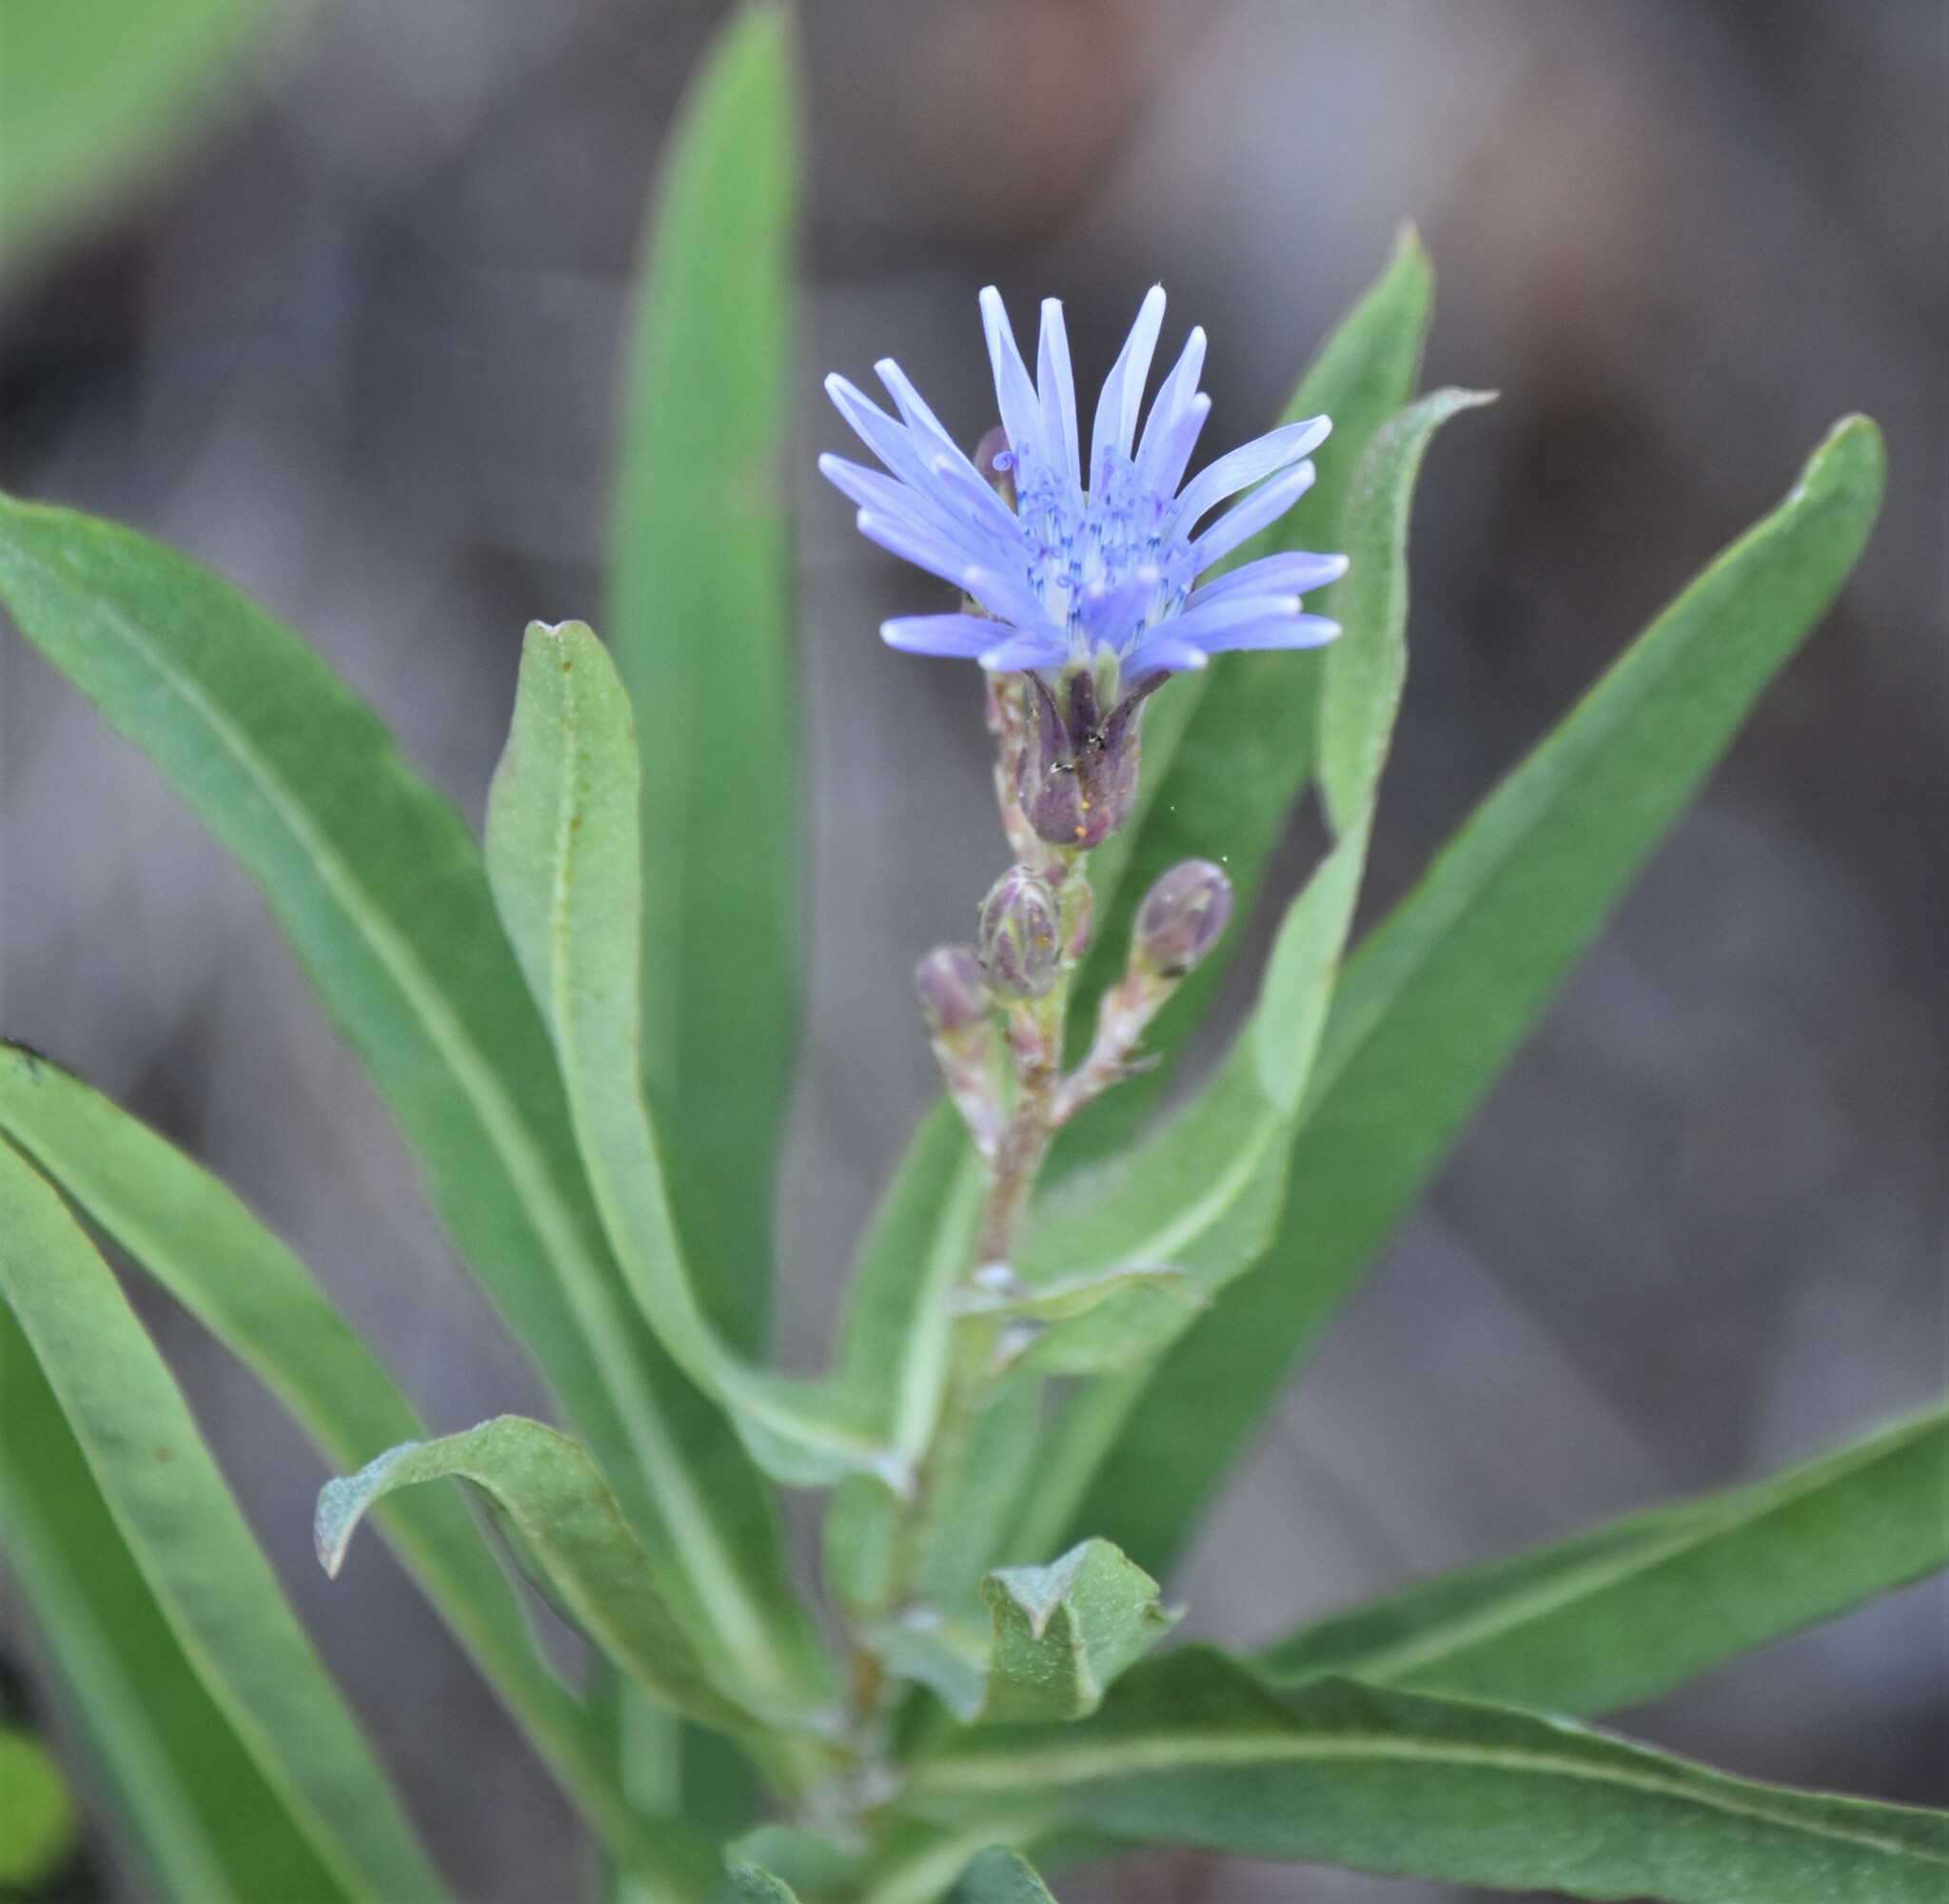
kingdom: Plantae
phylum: Tracheophyta
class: Magnoliopsida
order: Asterales
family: Asteraceae
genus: Lactuca
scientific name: Lactuca pulchella
